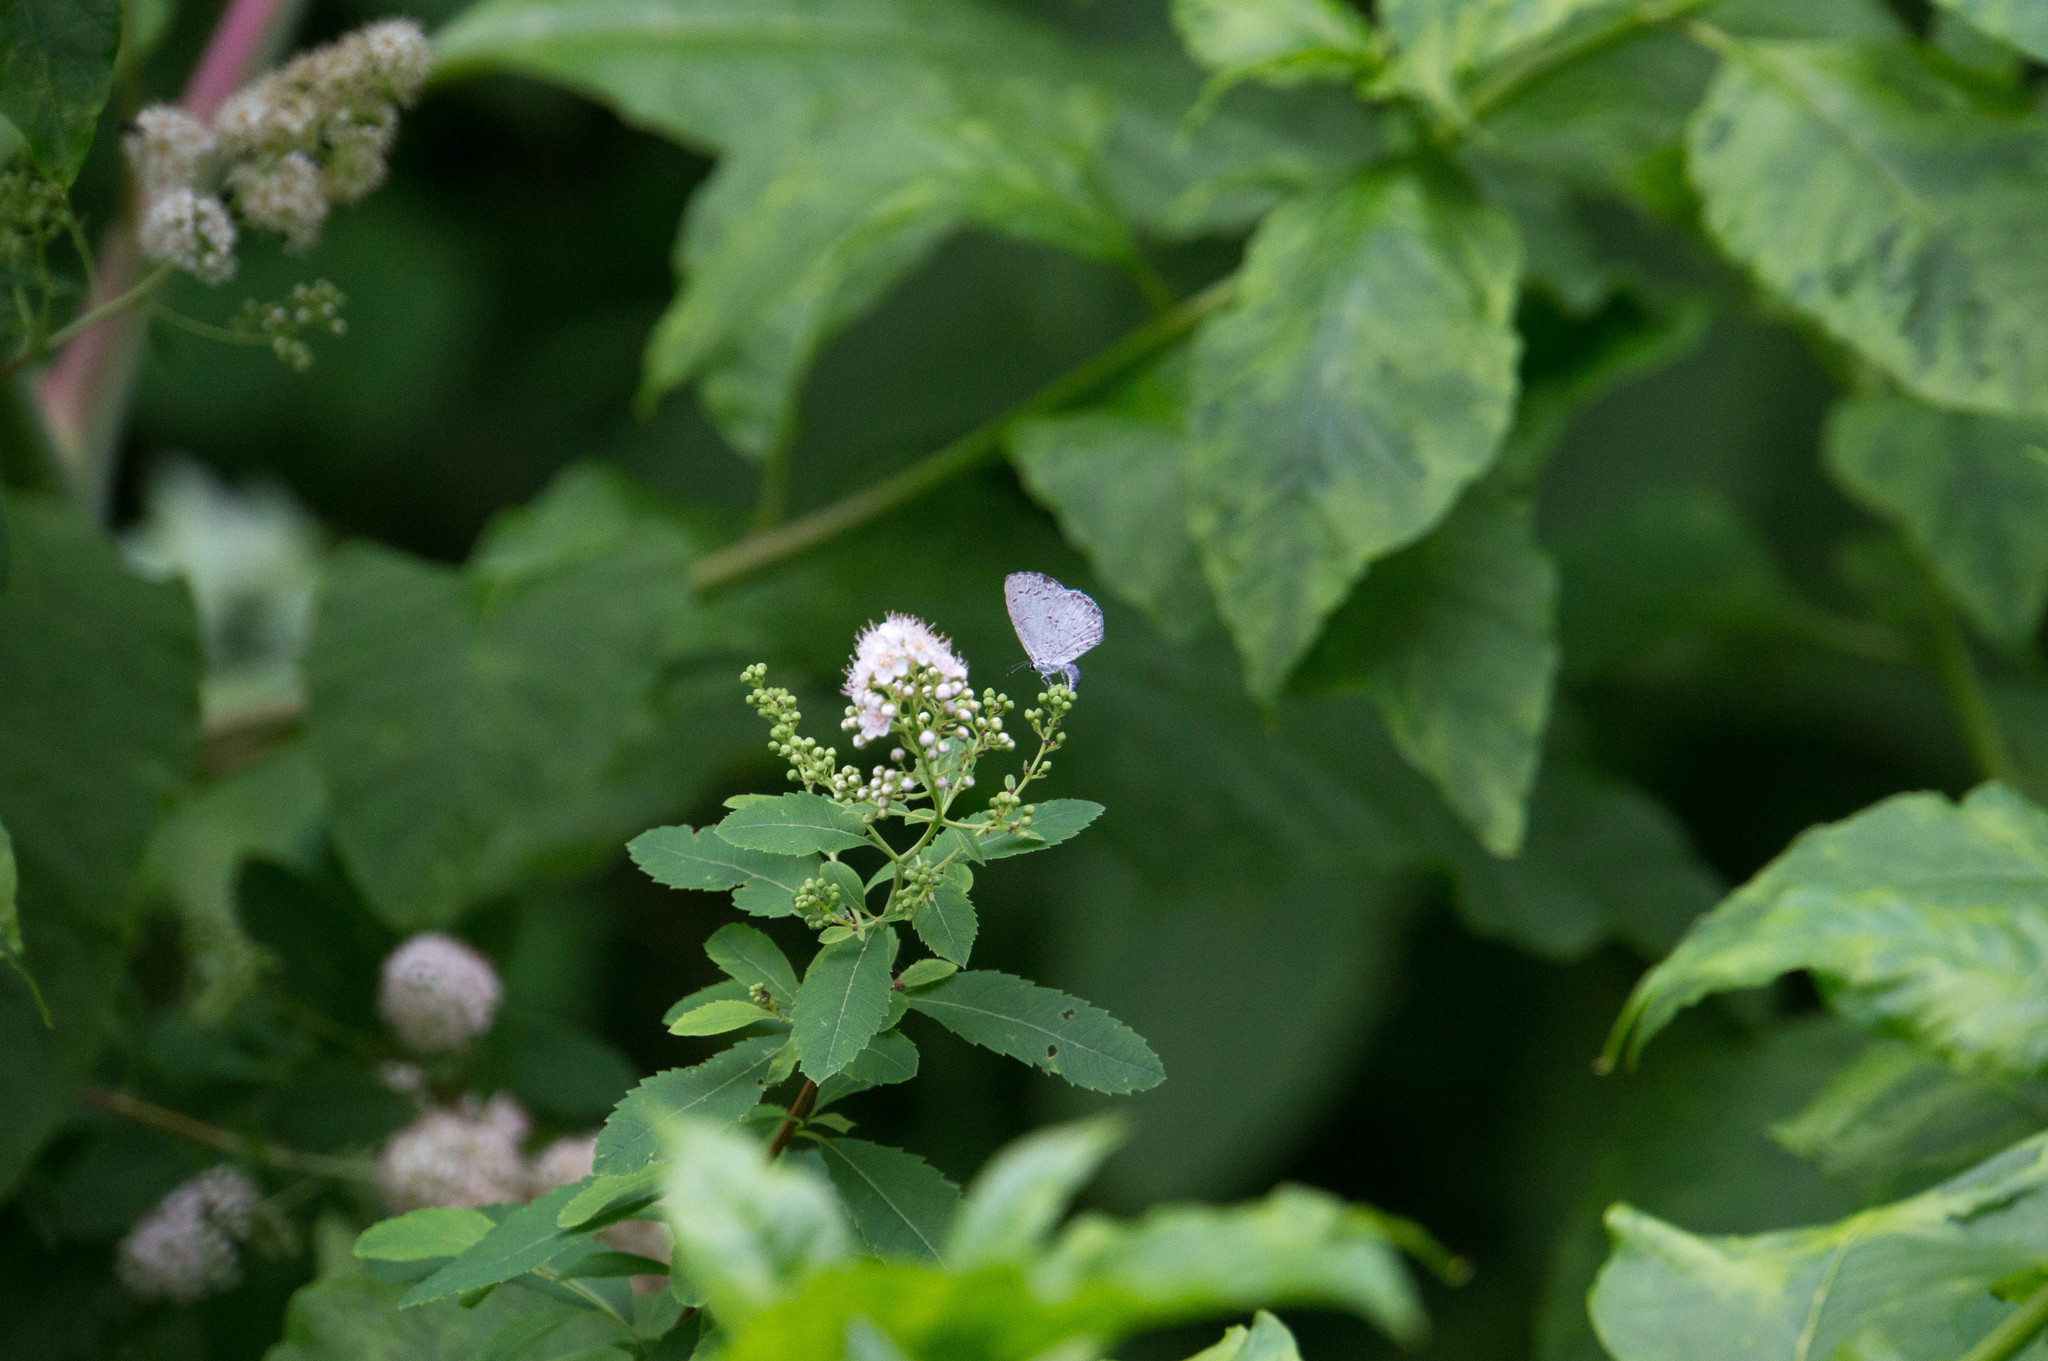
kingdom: Animalia
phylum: Arthropoda
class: Insecta
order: Lepidoptera
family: Lycaenidae
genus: Cyaniris
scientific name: Cyaniris neglecta
